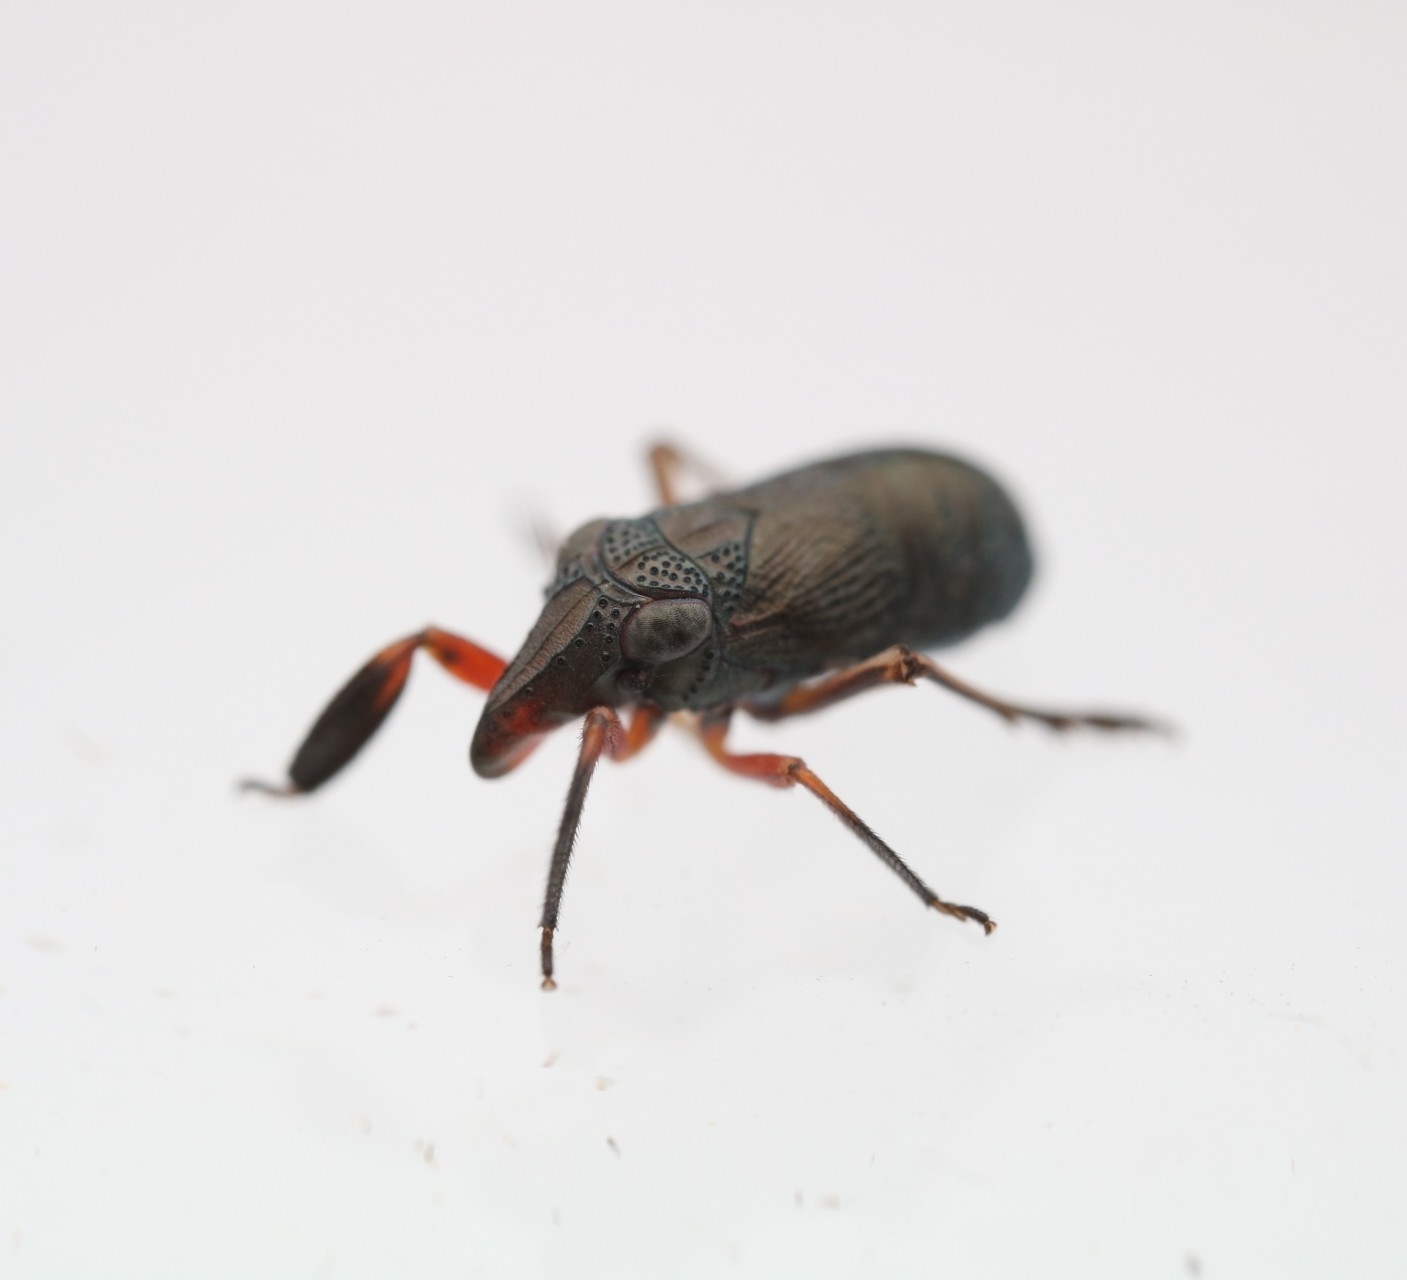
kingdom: Animalia
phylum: Arthropoda
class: Insecta
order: Hemiptera
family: Caliscelidae
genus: Fitchiella
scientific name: Fitchiella rufipes
